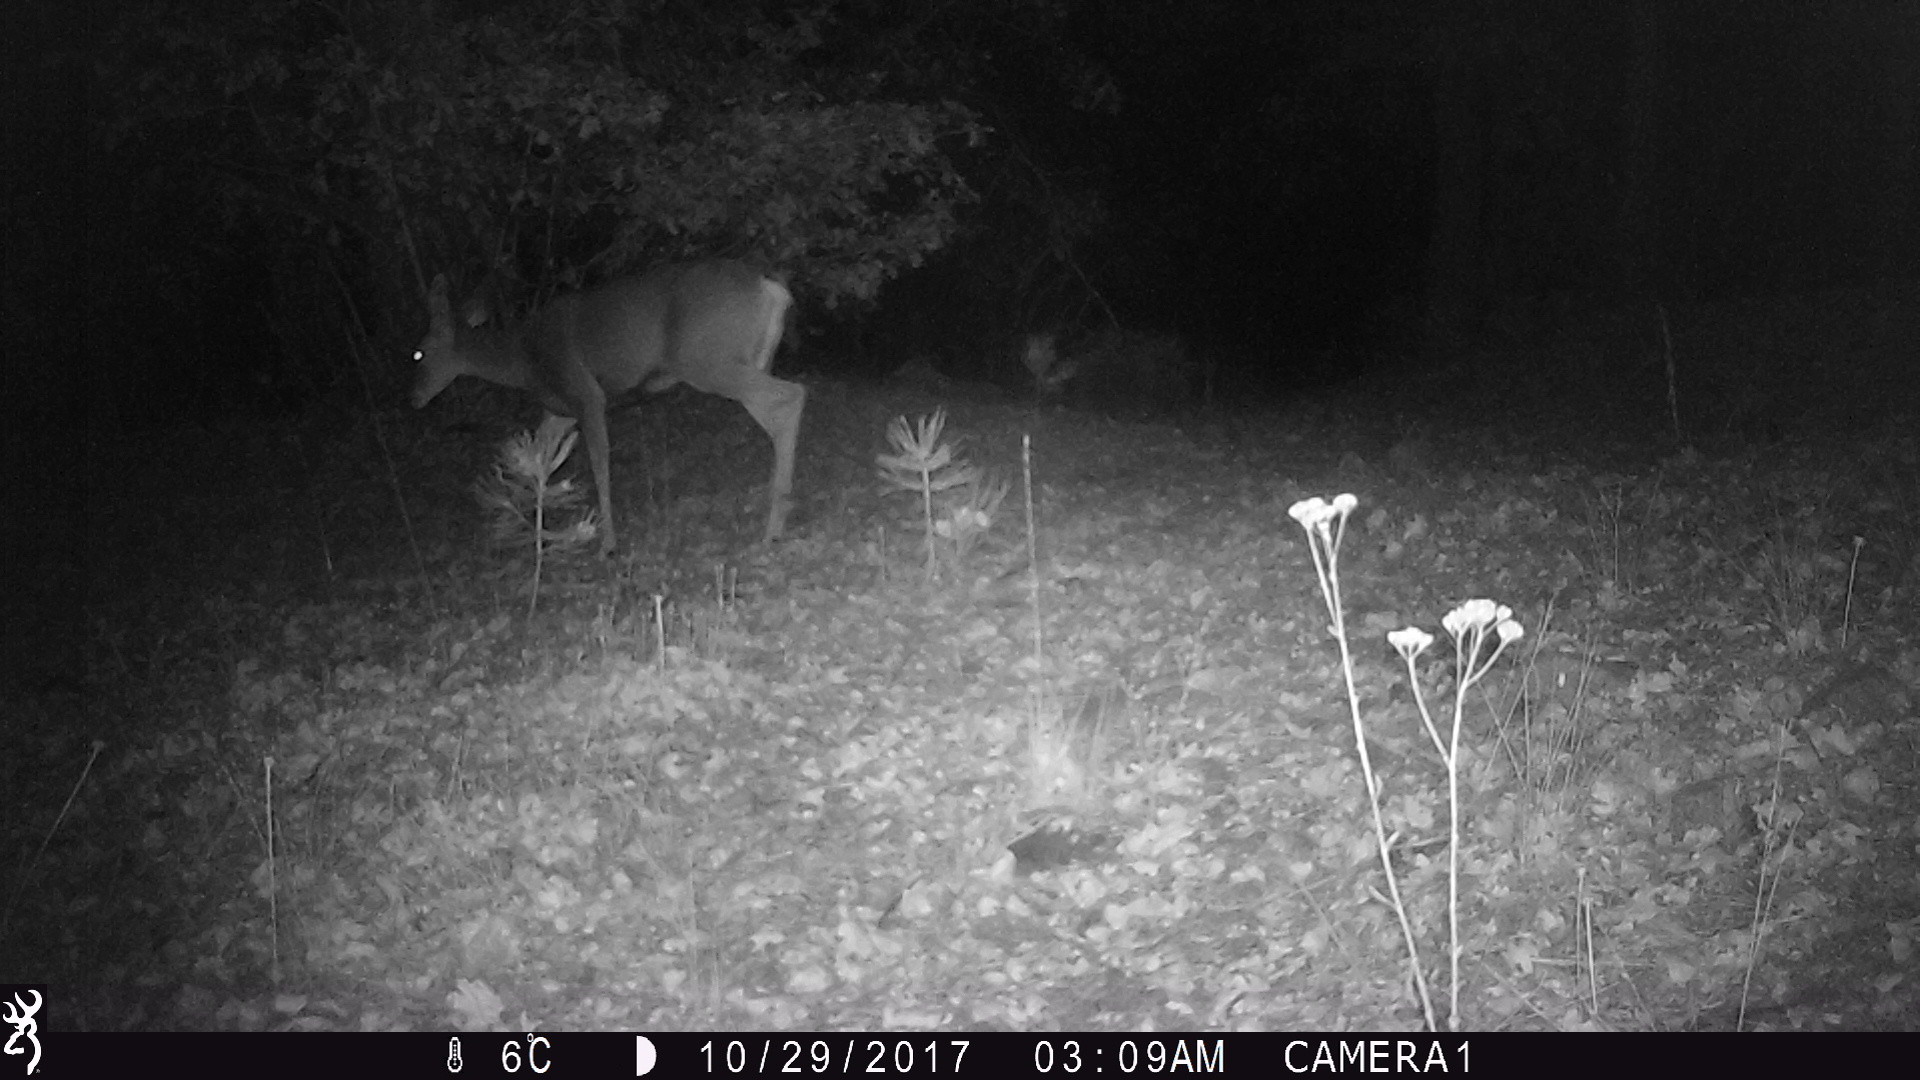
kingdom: Animalia
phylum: Chordata
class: Mammalia
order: Artiodactyla
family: Cervidae
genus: Odocoileus
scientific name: Odocoileus hemionus
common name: Mule deer
